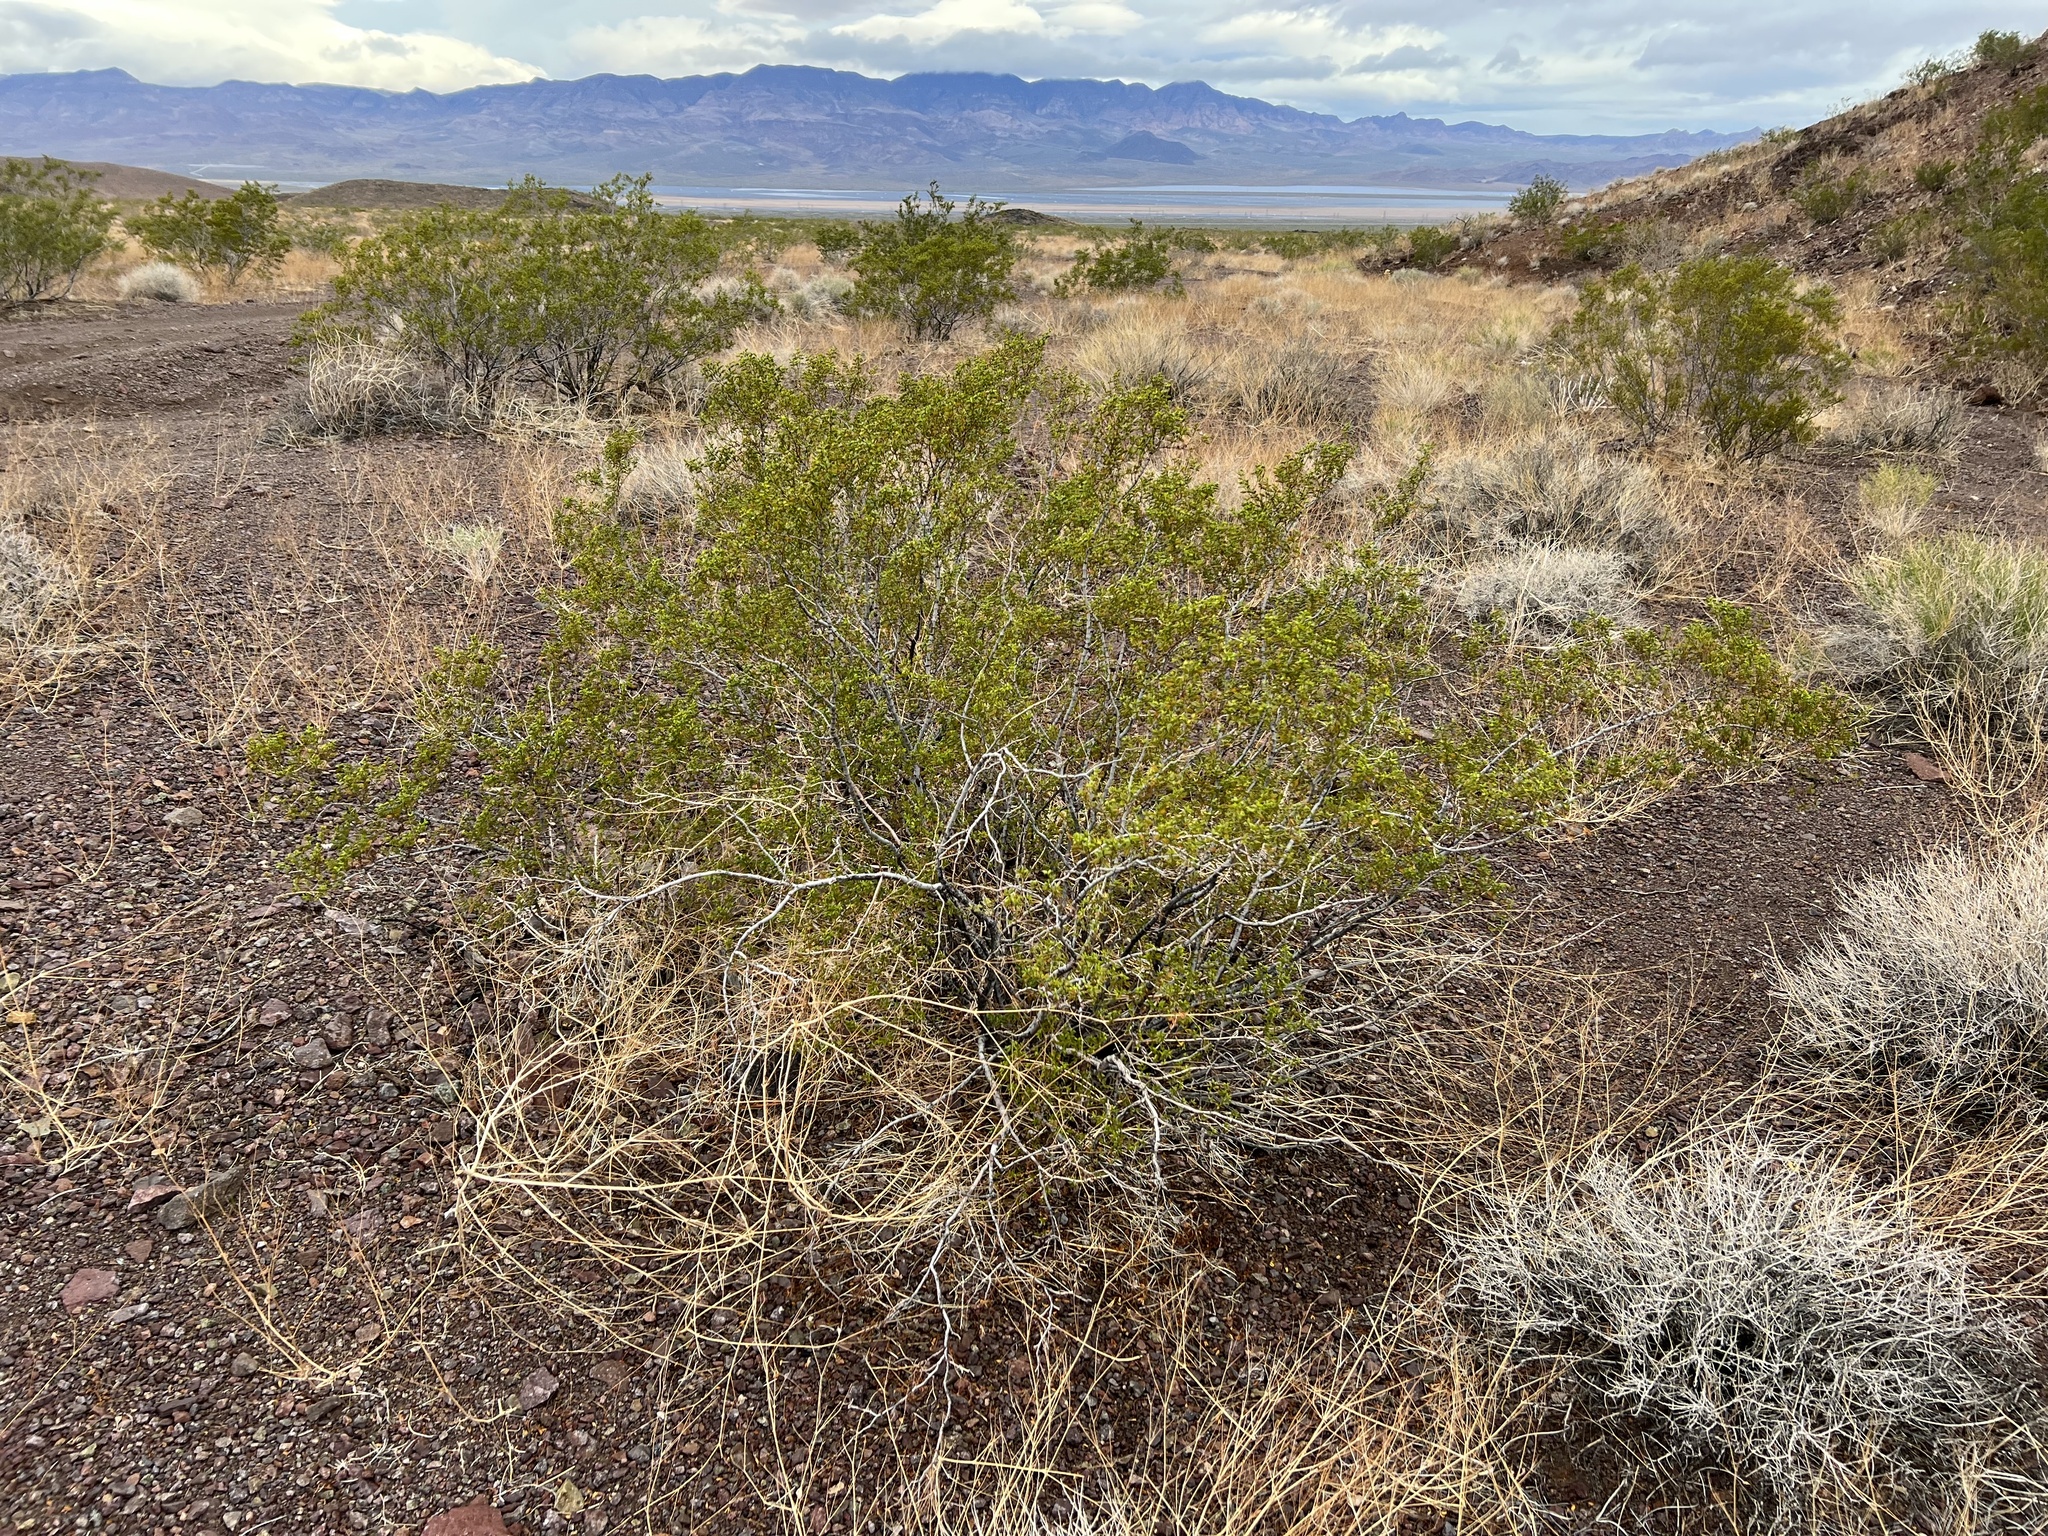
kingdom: Plantae
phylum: Tracheophyta
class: Magnoliopsida
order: Zygophyllales
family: Zygophyllaceae
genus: Larrea
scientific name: Larrea tridentata
